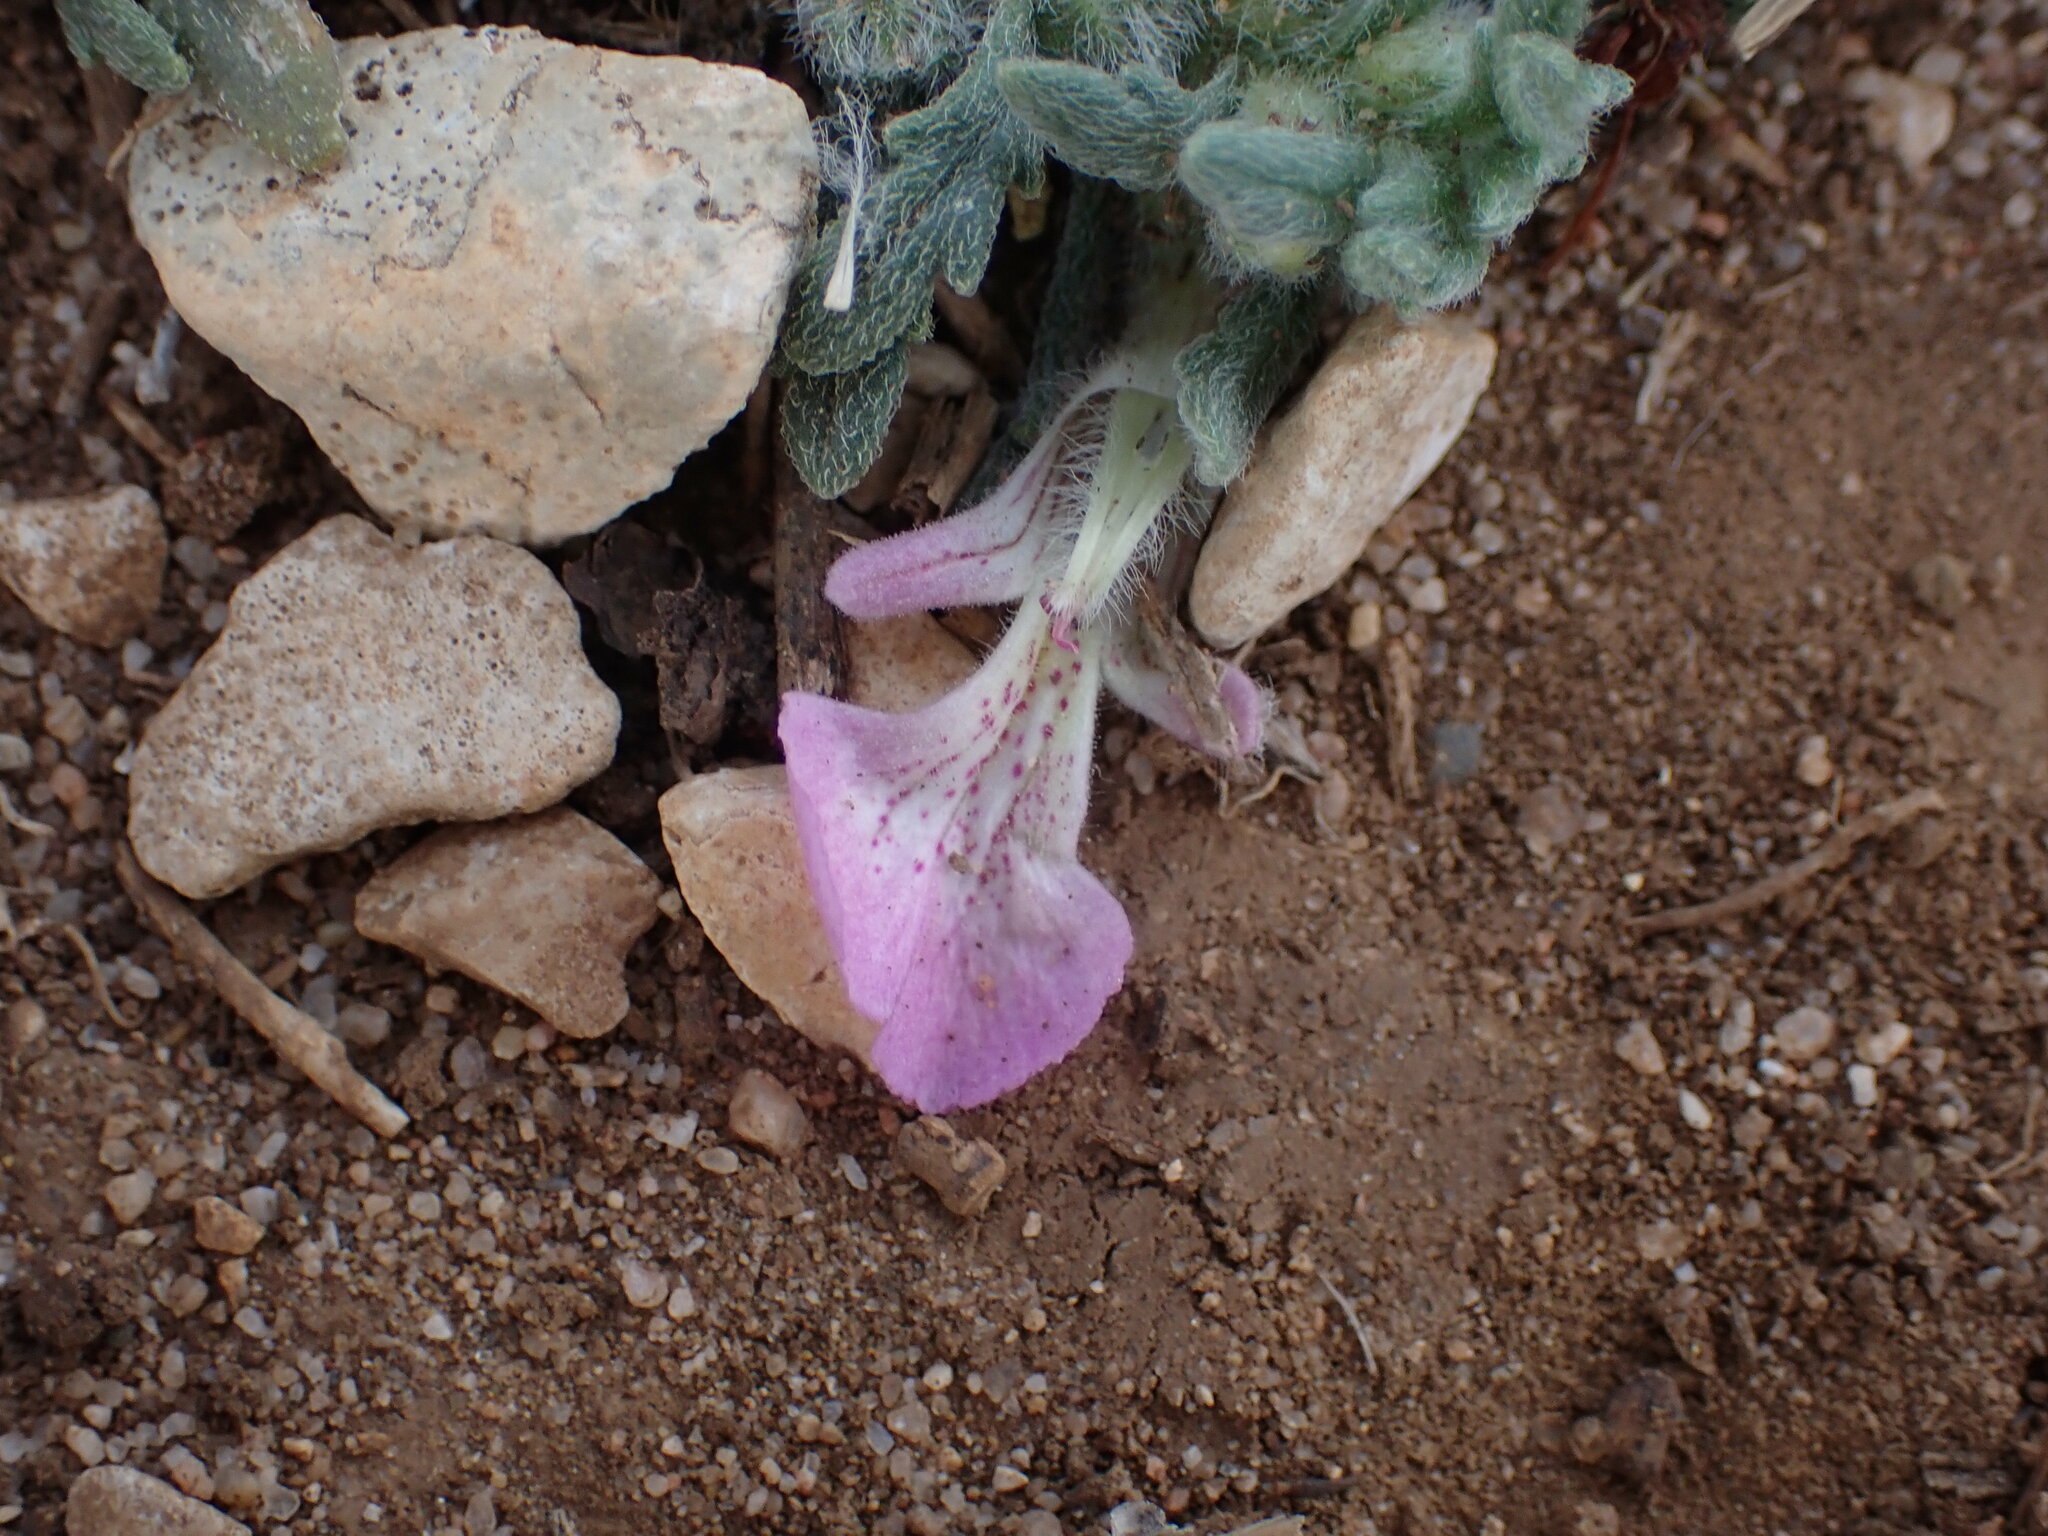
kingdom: Plantae
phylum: Tracheophyta
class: Magnoliopsida
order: Lamiales
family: Lamiaceae
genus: Ajuga
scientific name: Ajuga iva
